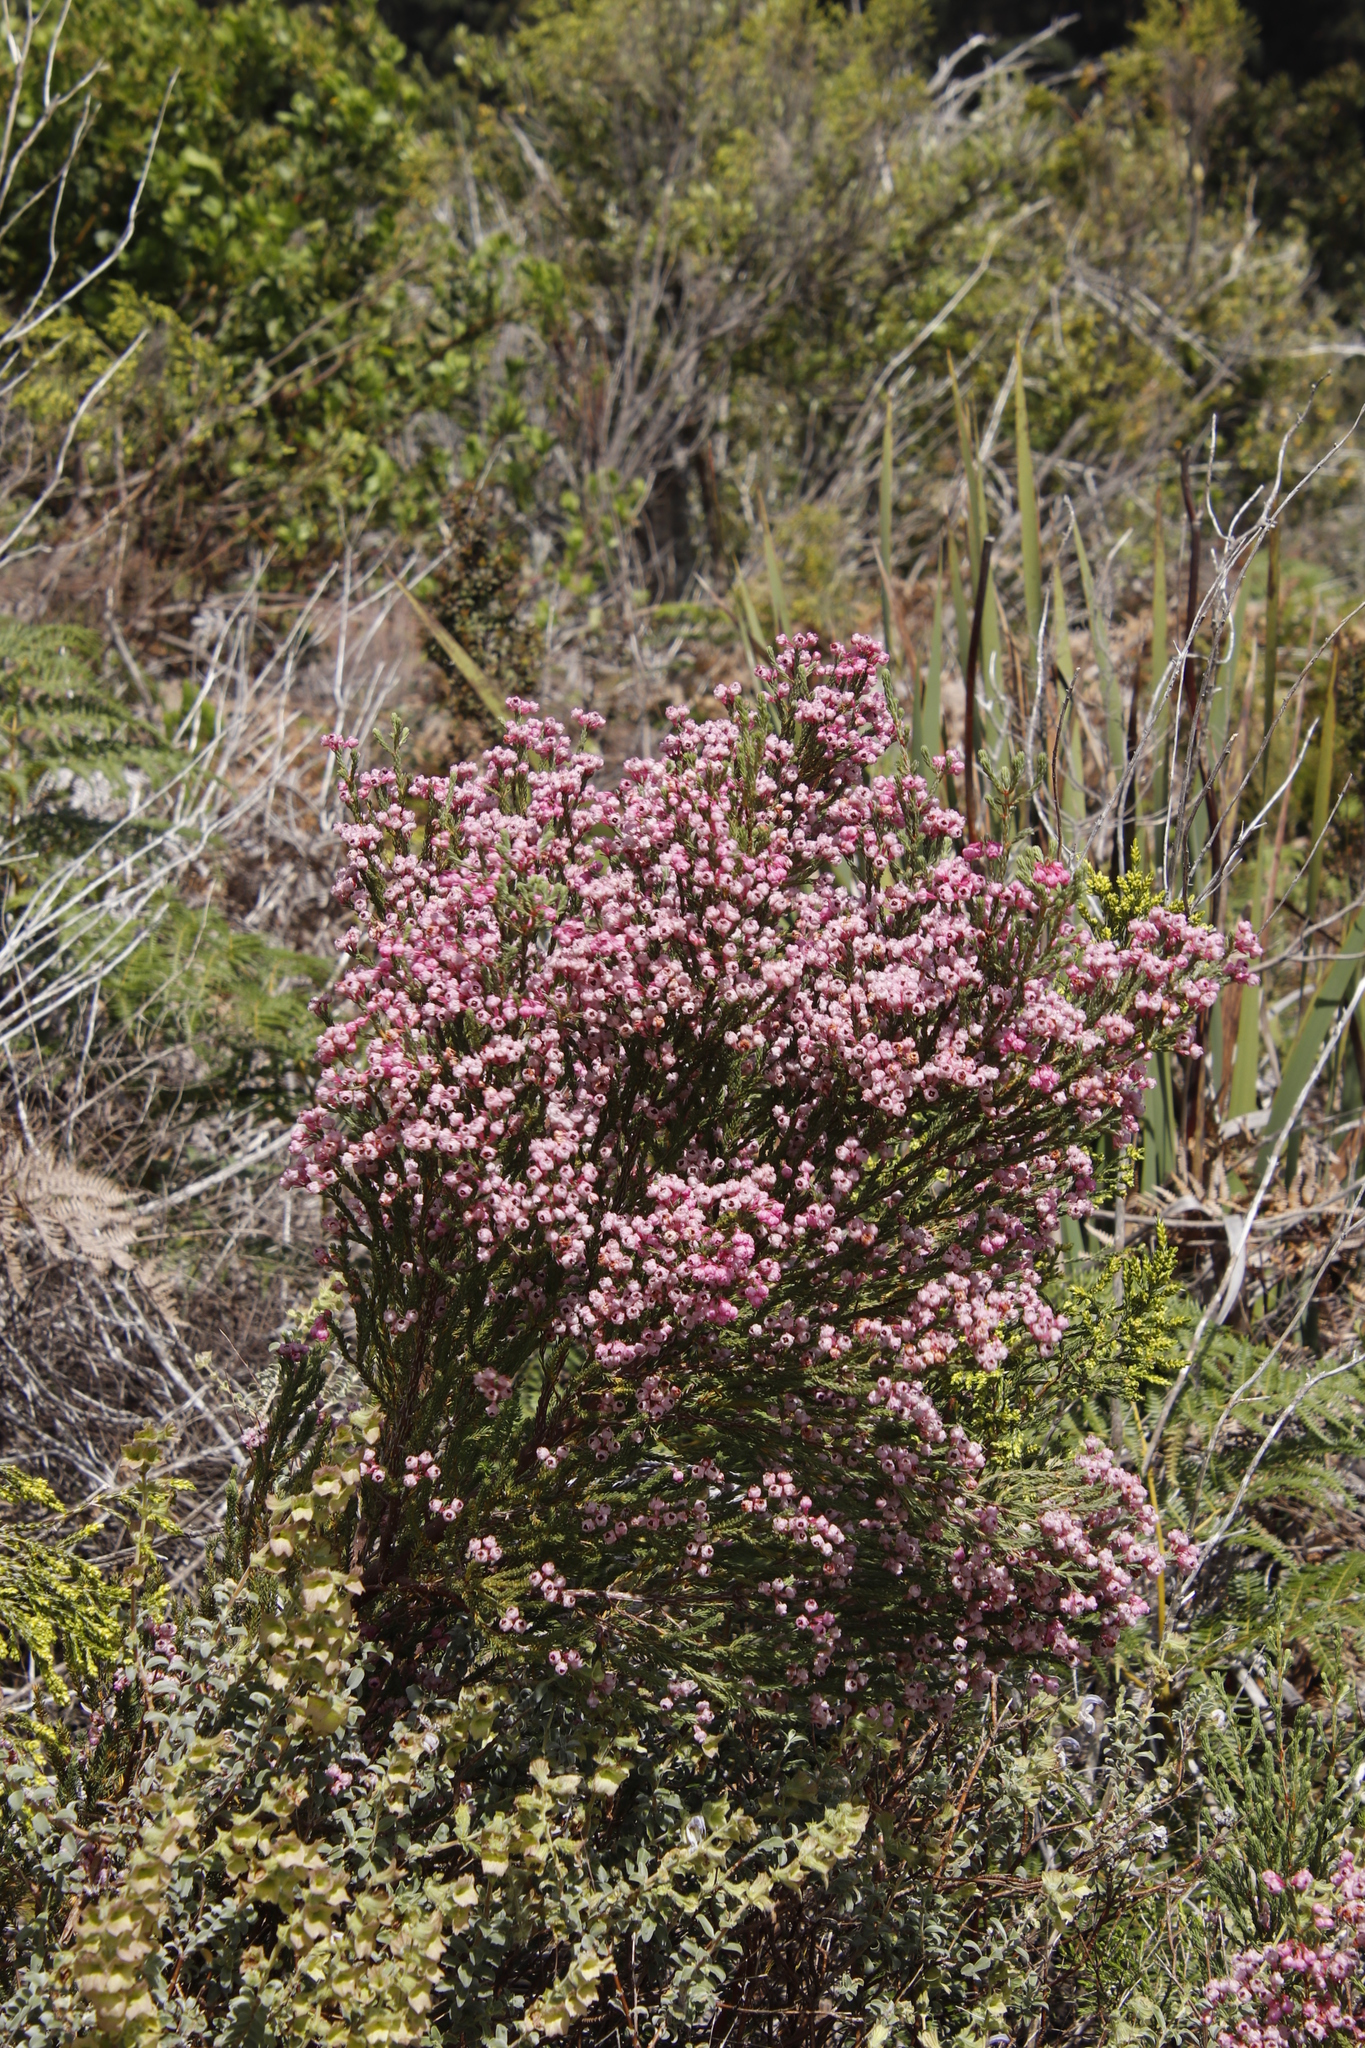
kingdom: Plantae
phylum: Tracheophyta
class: Magnoliopsida
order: Ericales
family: Ericaceae
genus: Erica
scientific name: Erica baccans
